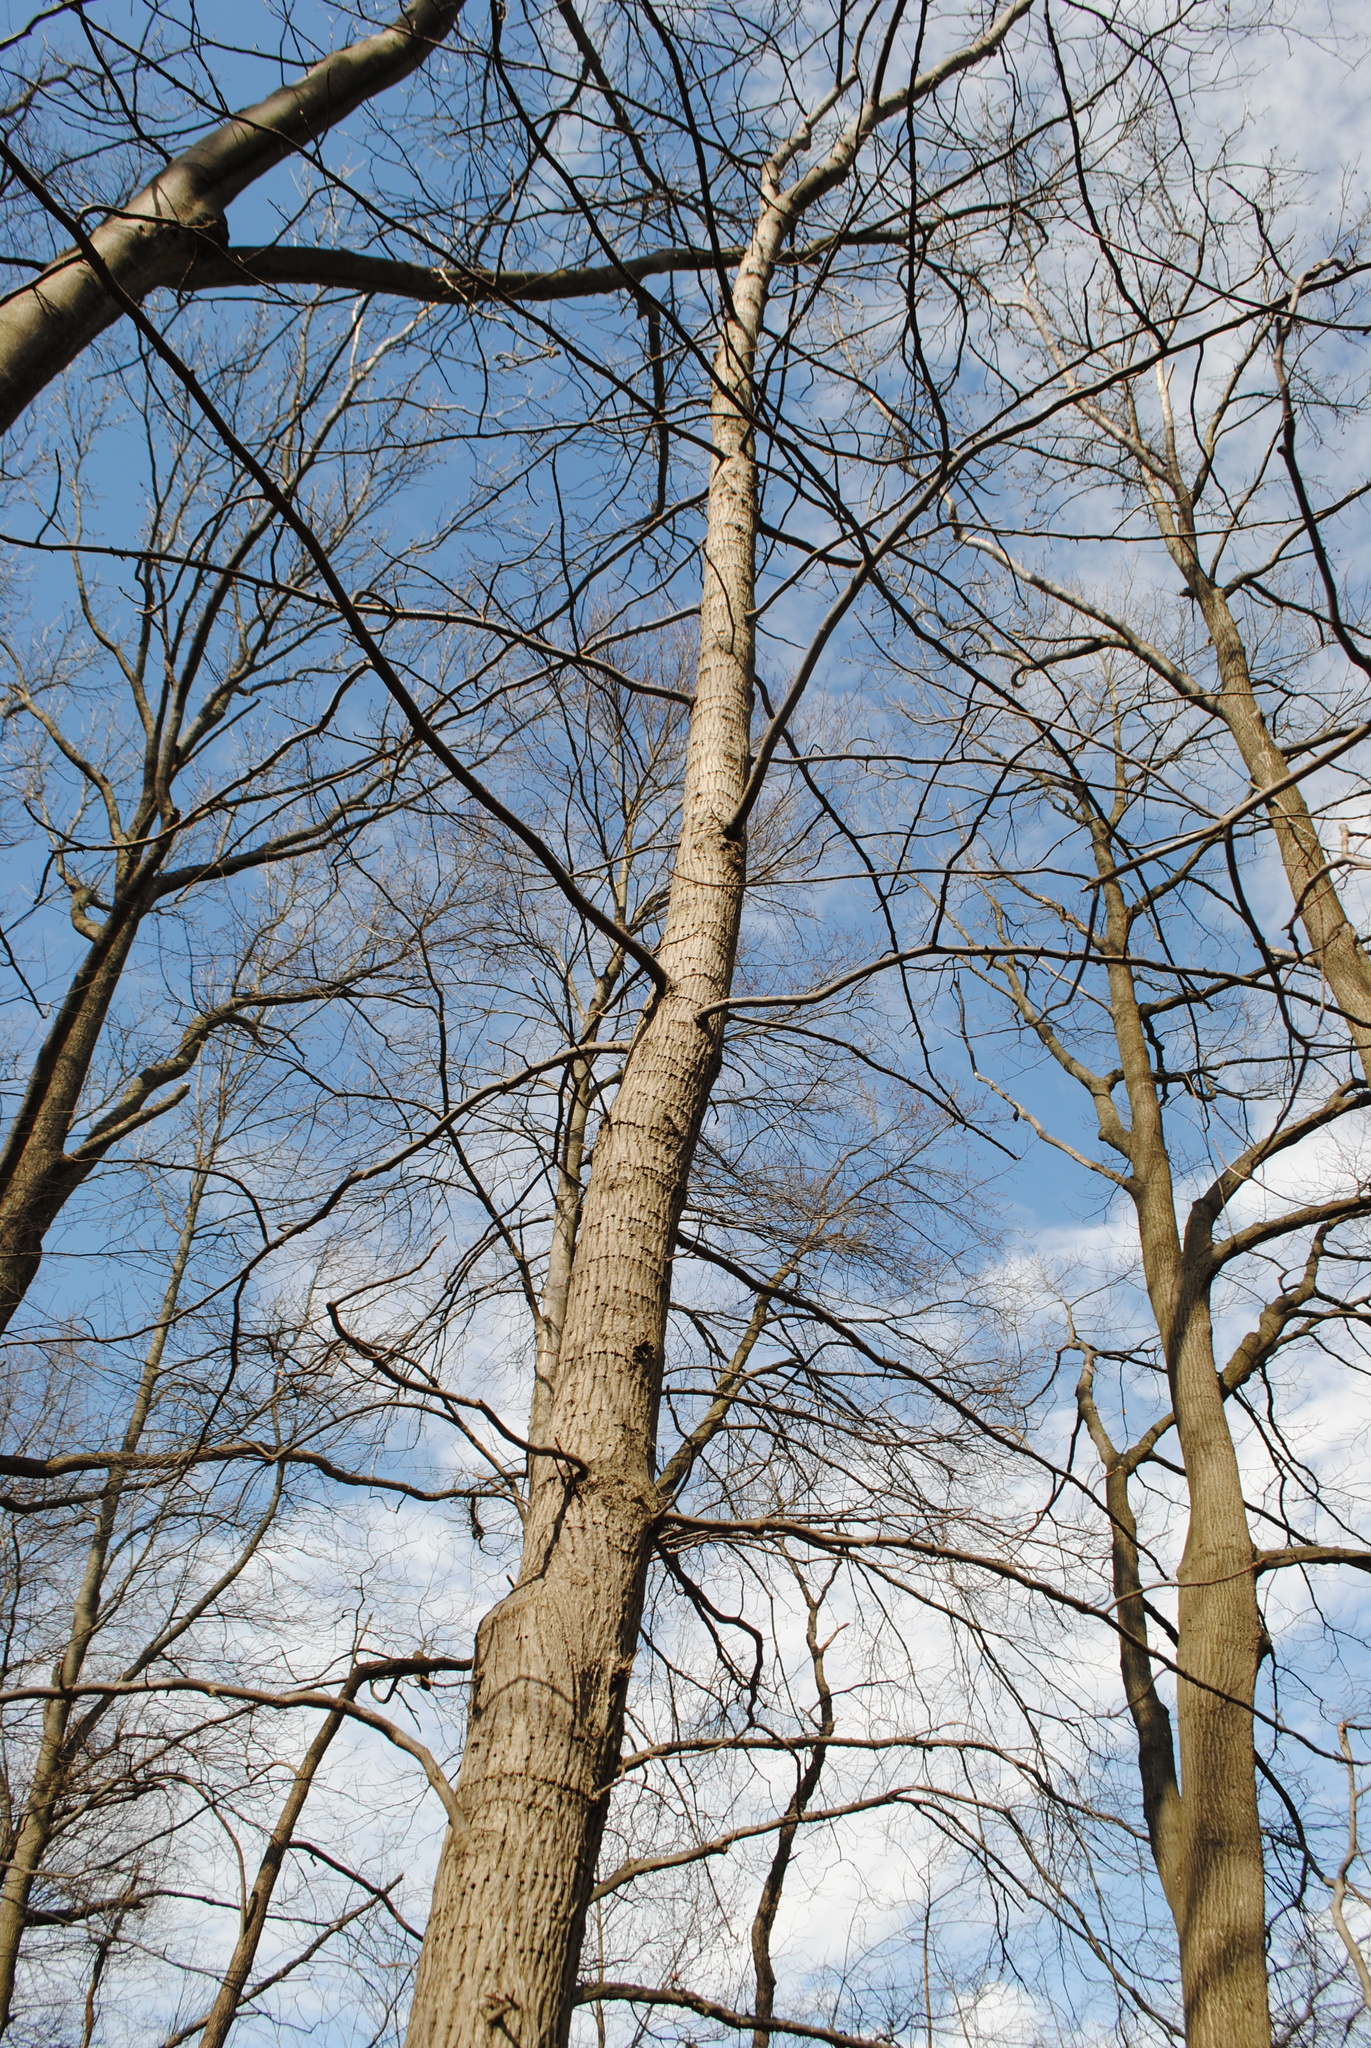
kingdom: Plantae
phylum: Tracheophyta
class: Magnoliopsida
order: Fagales
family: Juglandaceae
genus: Carya
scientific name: Carya alba
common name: Mockernut hickory
